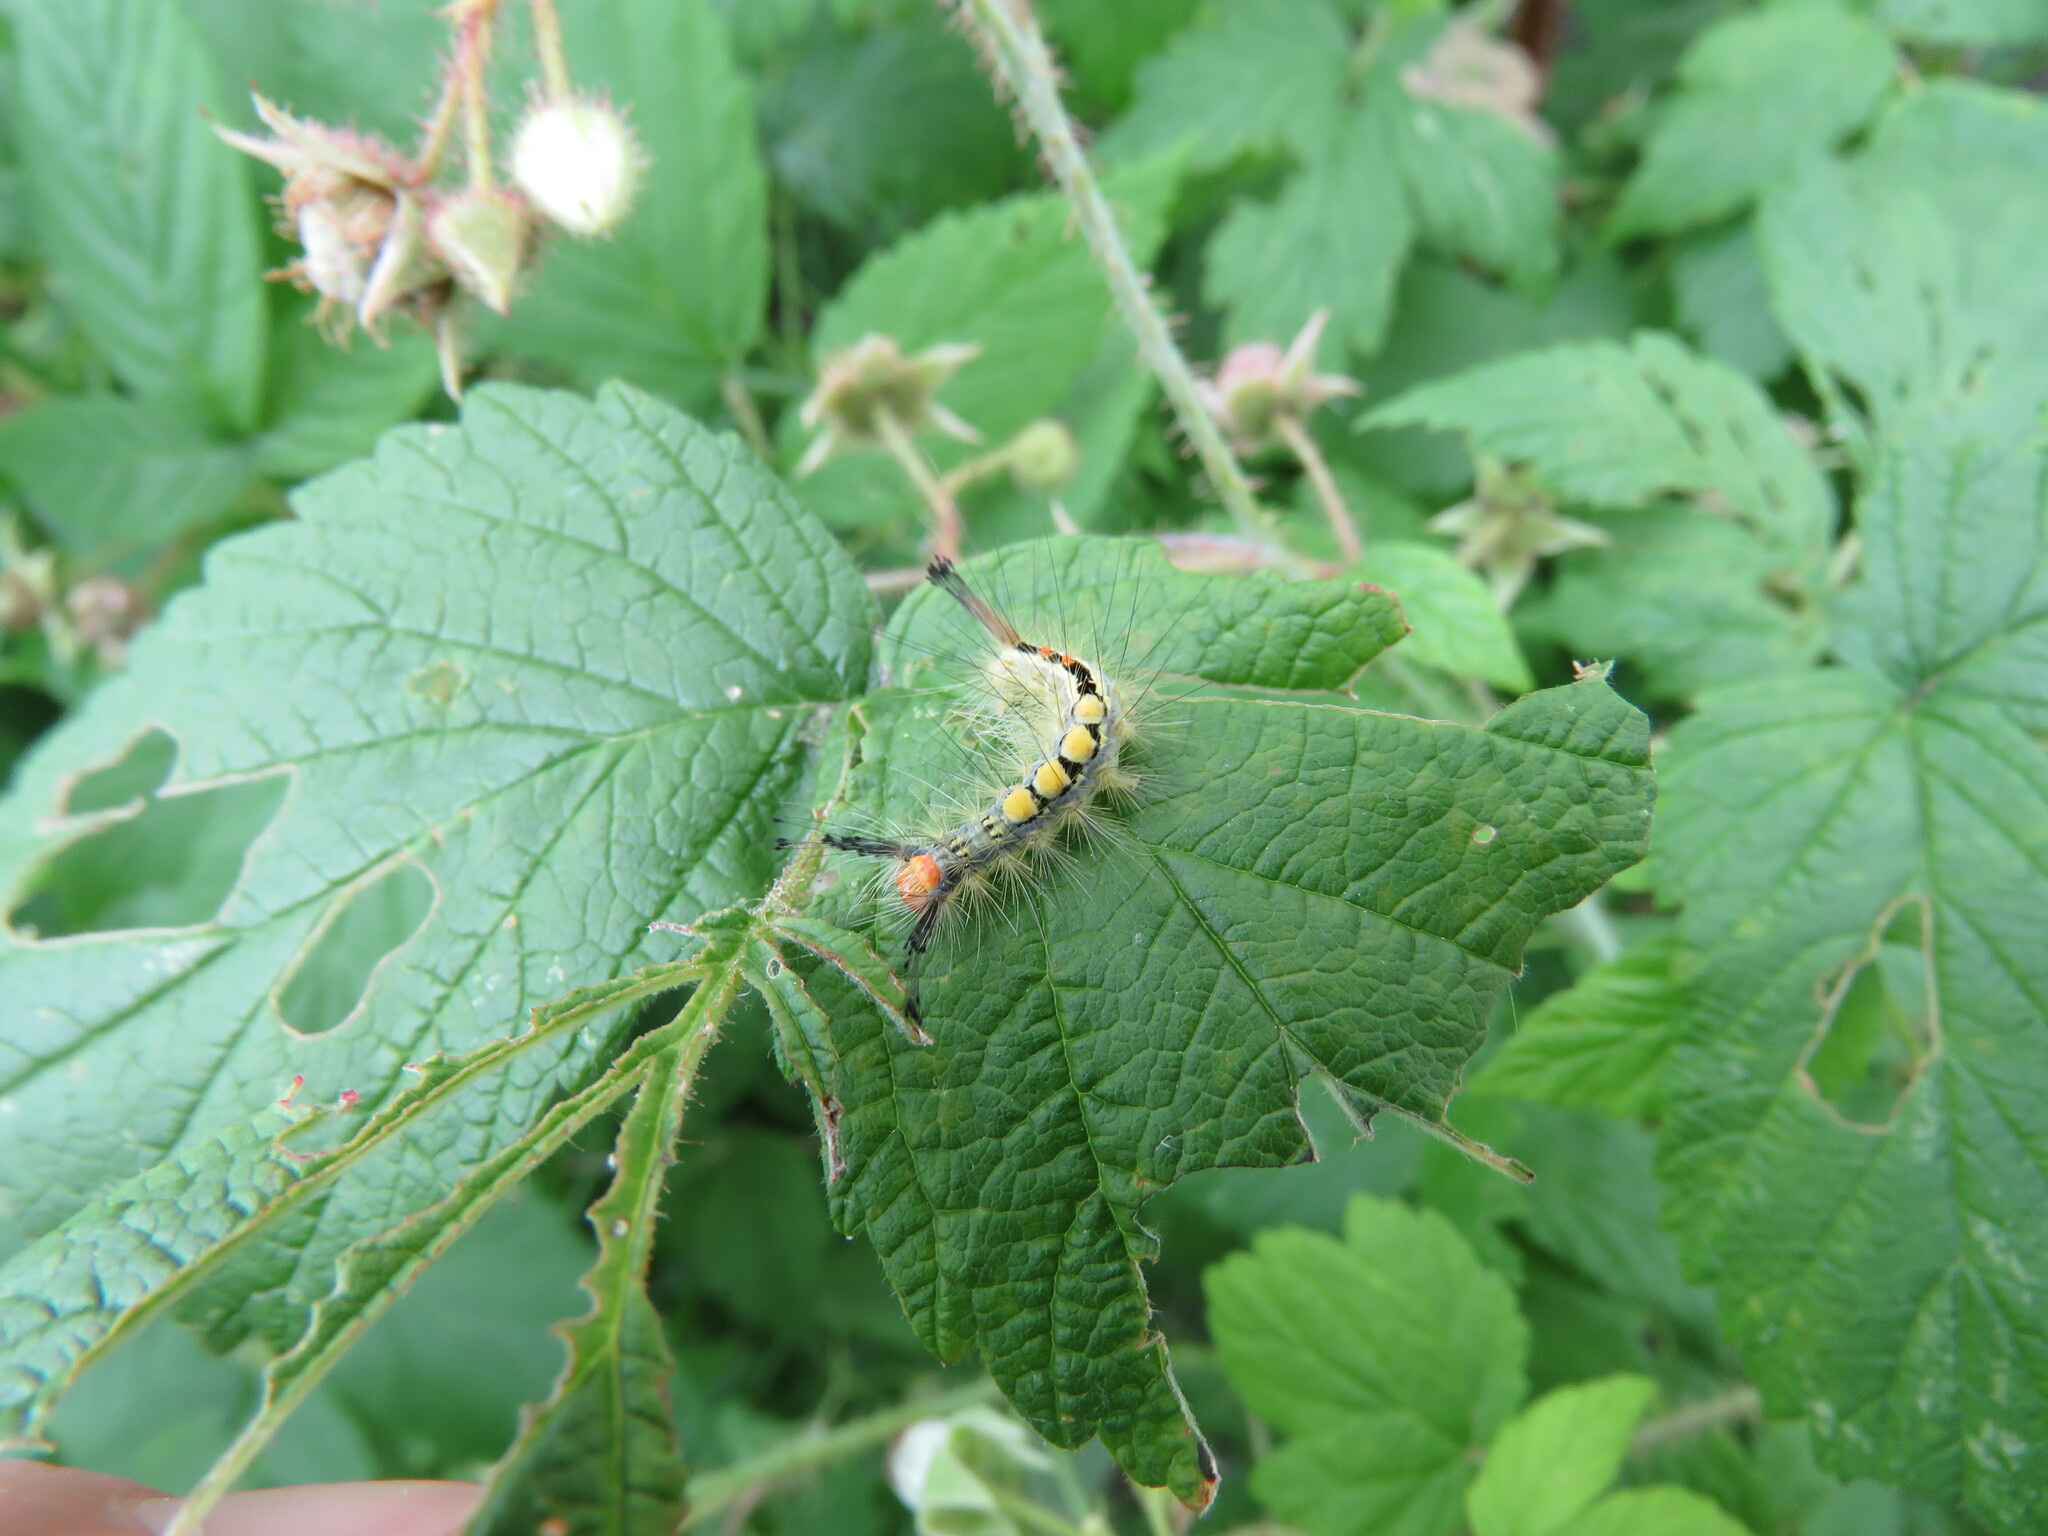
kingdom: Animalia
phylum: Arthropoda
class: Insecta
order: Lepidoptera
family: Erebidae
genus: Orgyia
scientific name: Orgyia leucostigma
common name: White-marked tussock moth
